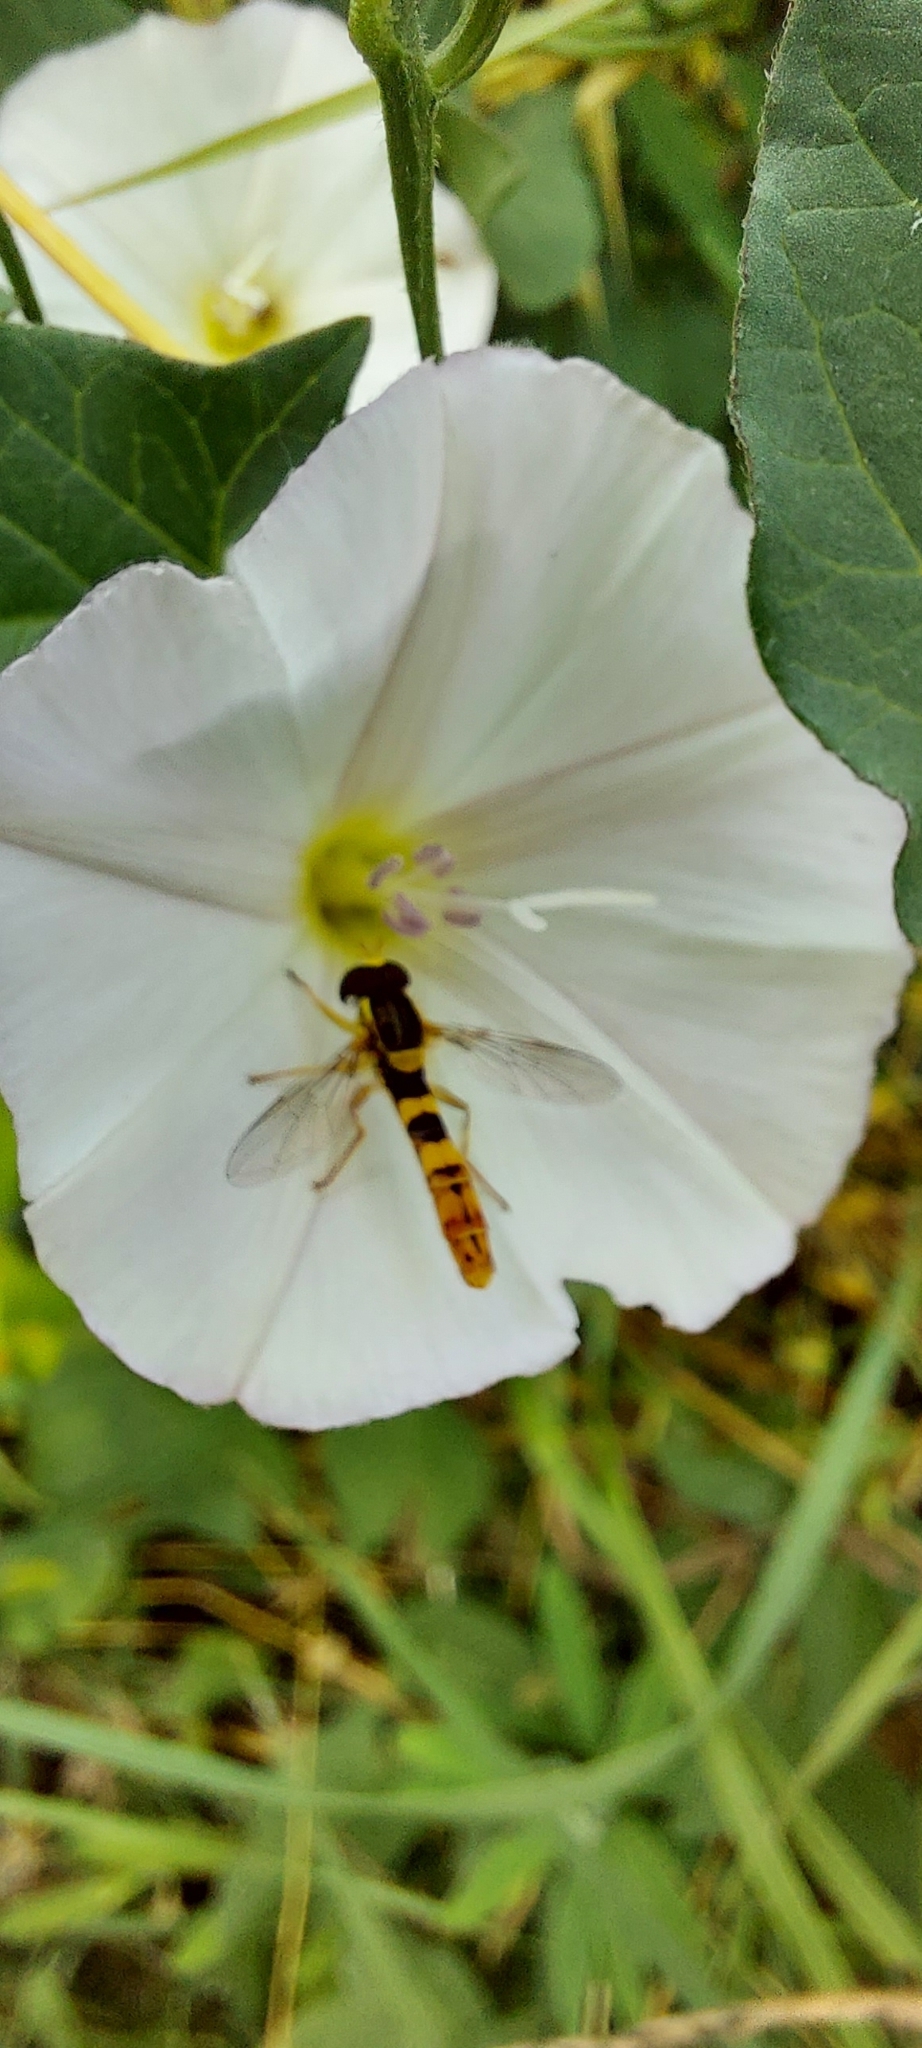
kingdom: Animalia
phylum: Arthropoda
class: Insecta
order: Diptera
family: Syrphidae
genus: Sphaerophoria
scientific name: Sphaerophoria scripta
